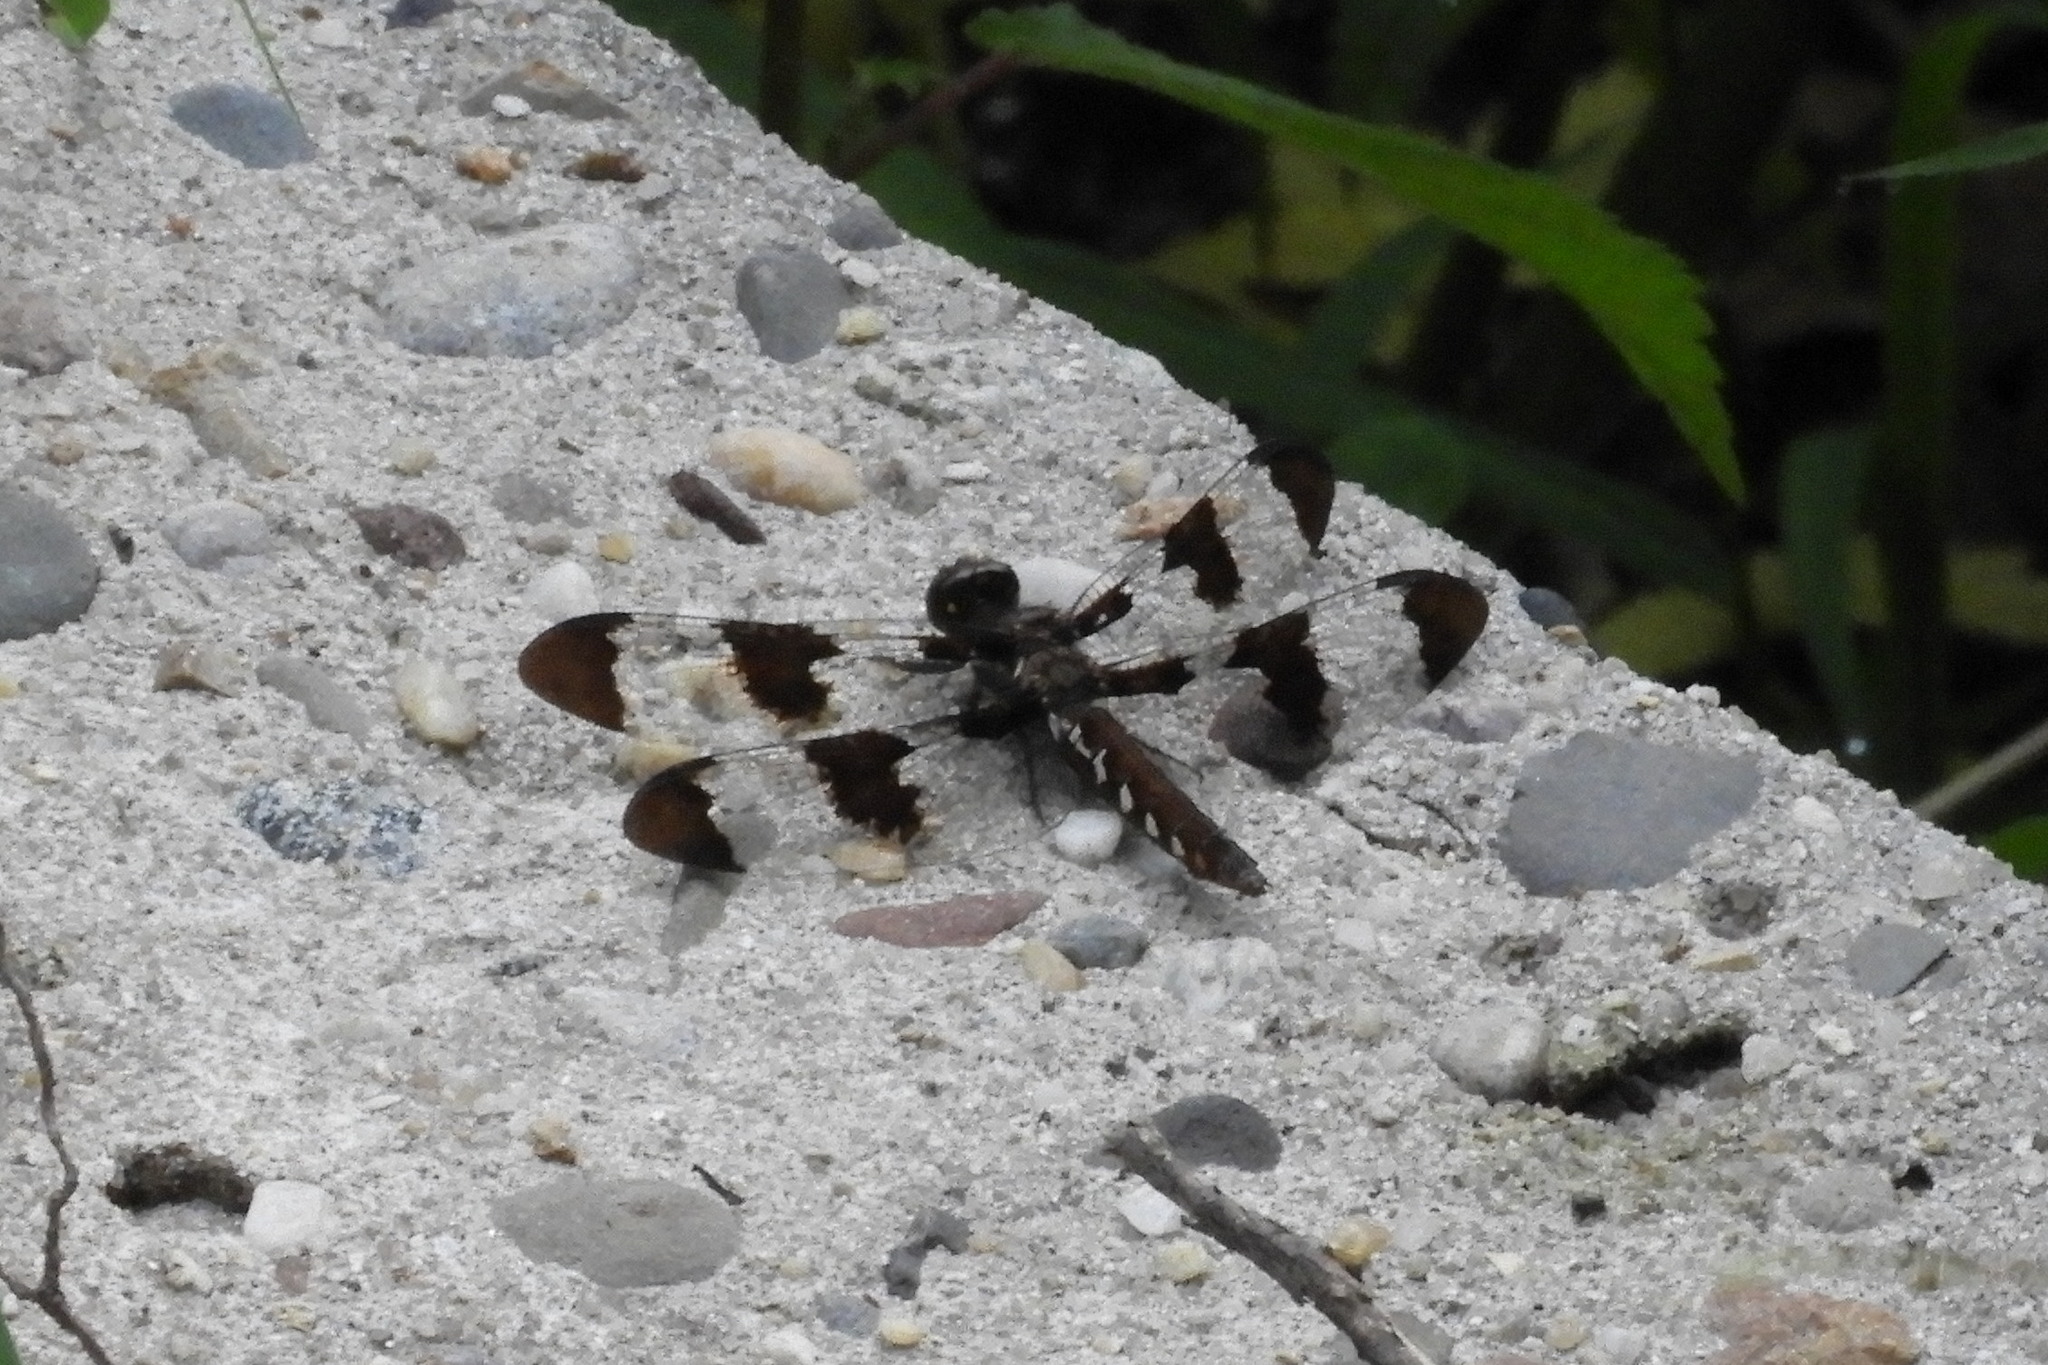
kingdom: Animalia
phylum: Arthropoda
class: Insecta
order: Odonata
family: Libellulidae
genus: Plathemis
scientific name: Plathemis lydia
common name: Common whitetail
